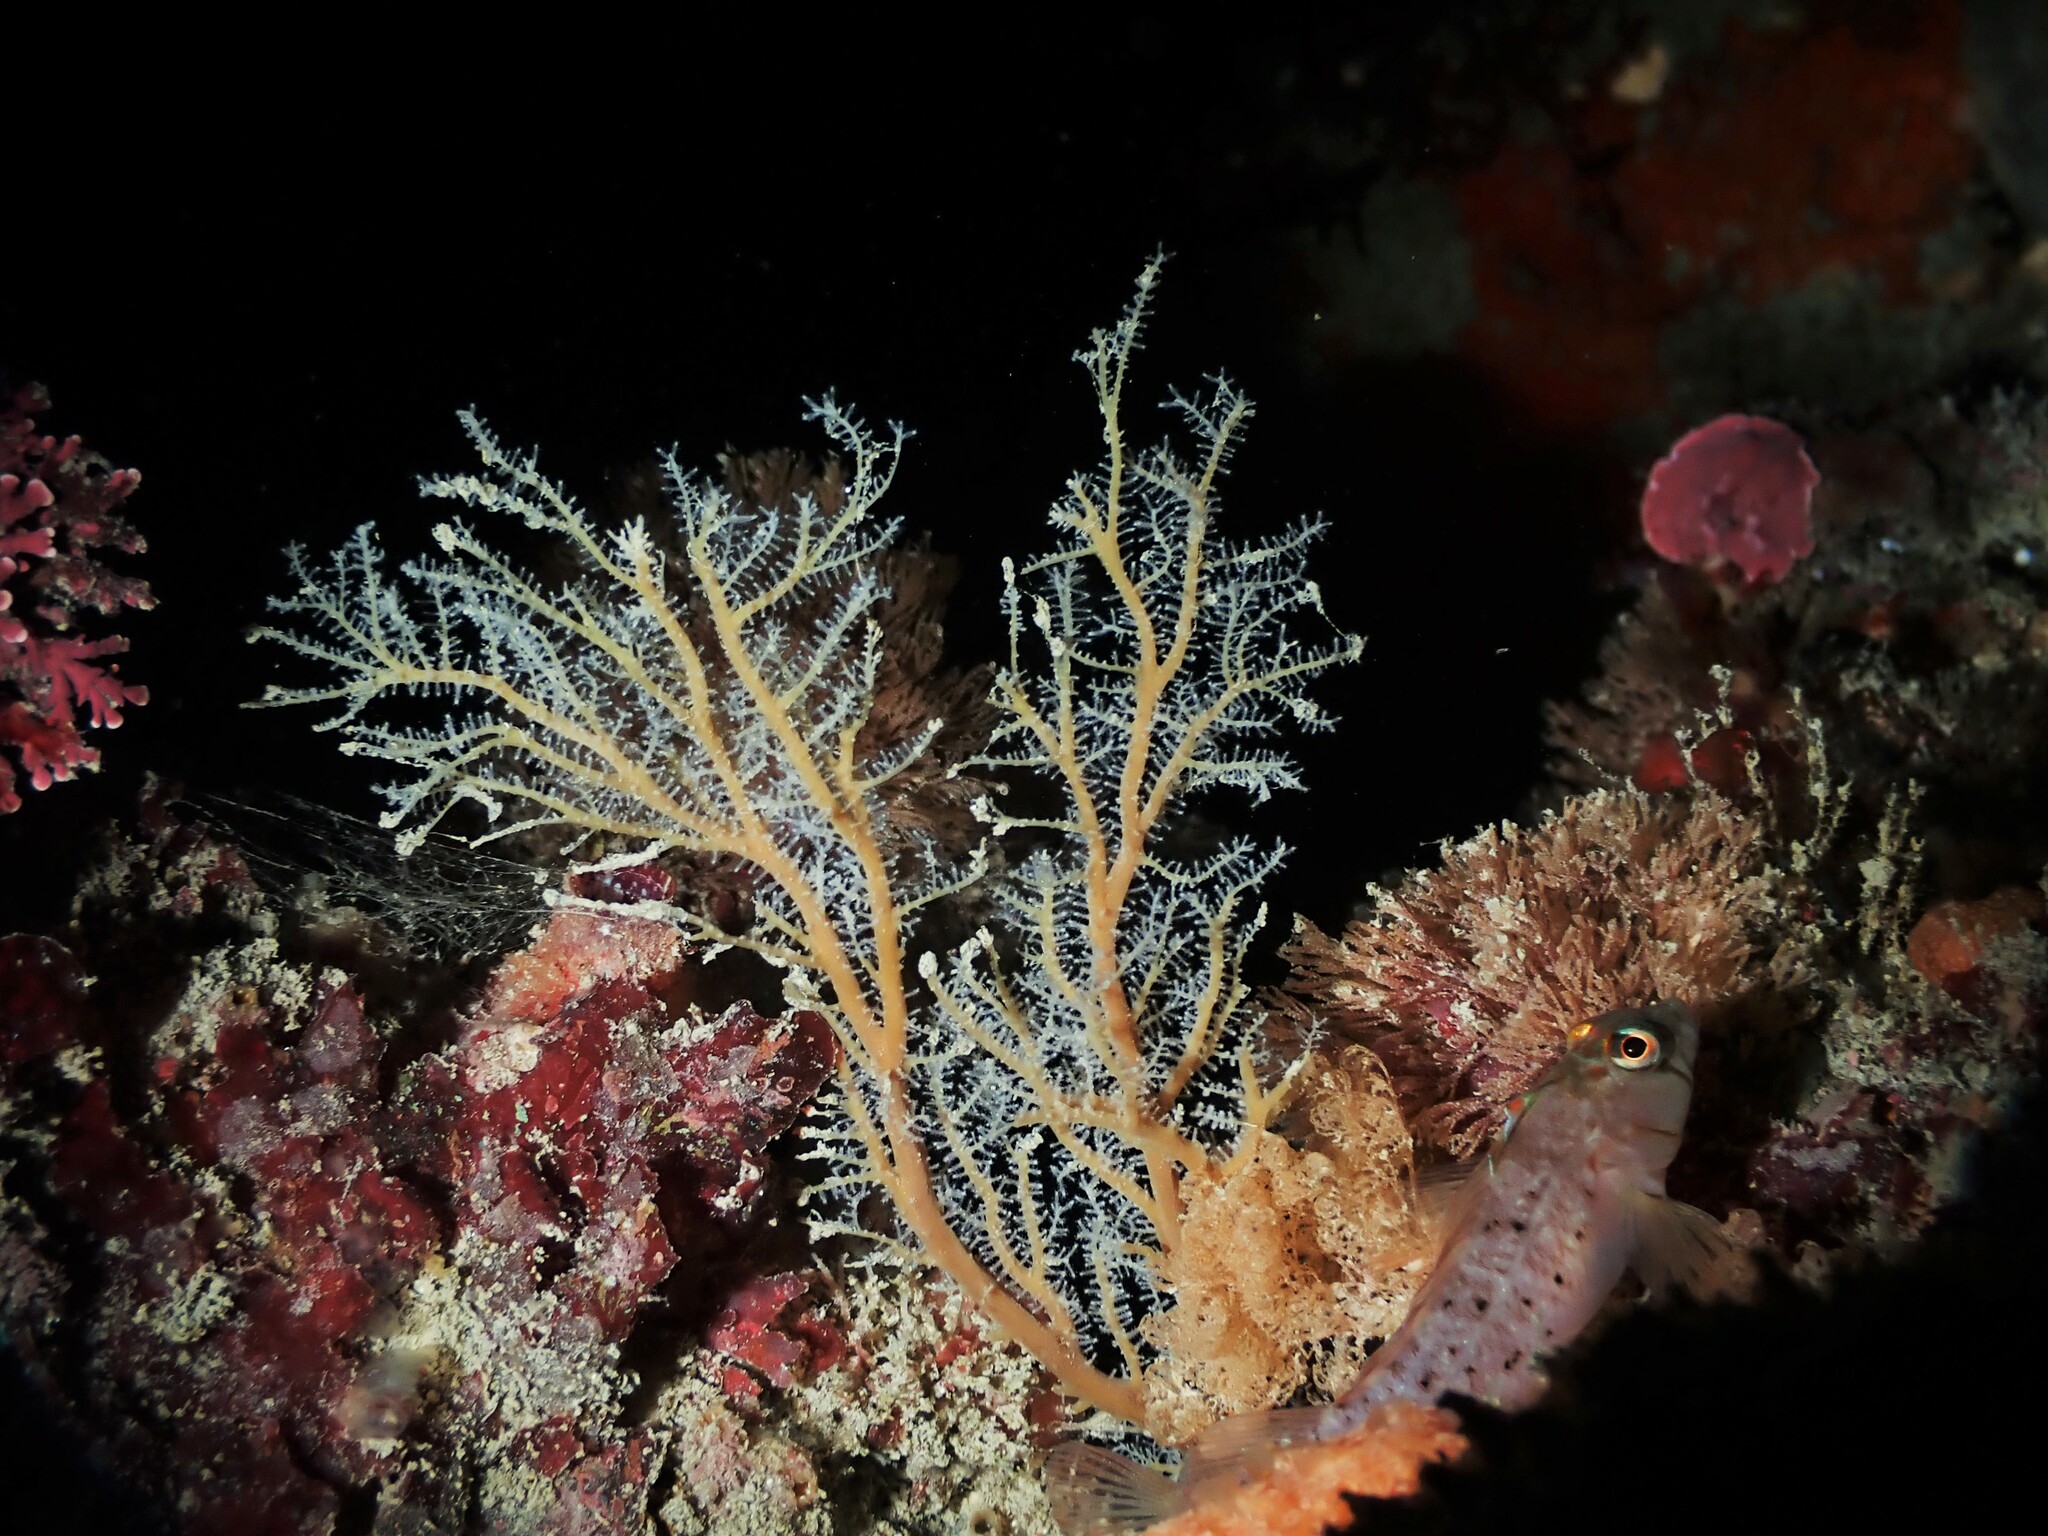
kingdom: Animalia
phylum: Cnidaria
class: Hydrozoa
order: Anthoathecata
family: Solanderiidae
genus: Solanderia
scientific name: Solanderia ericopsis
